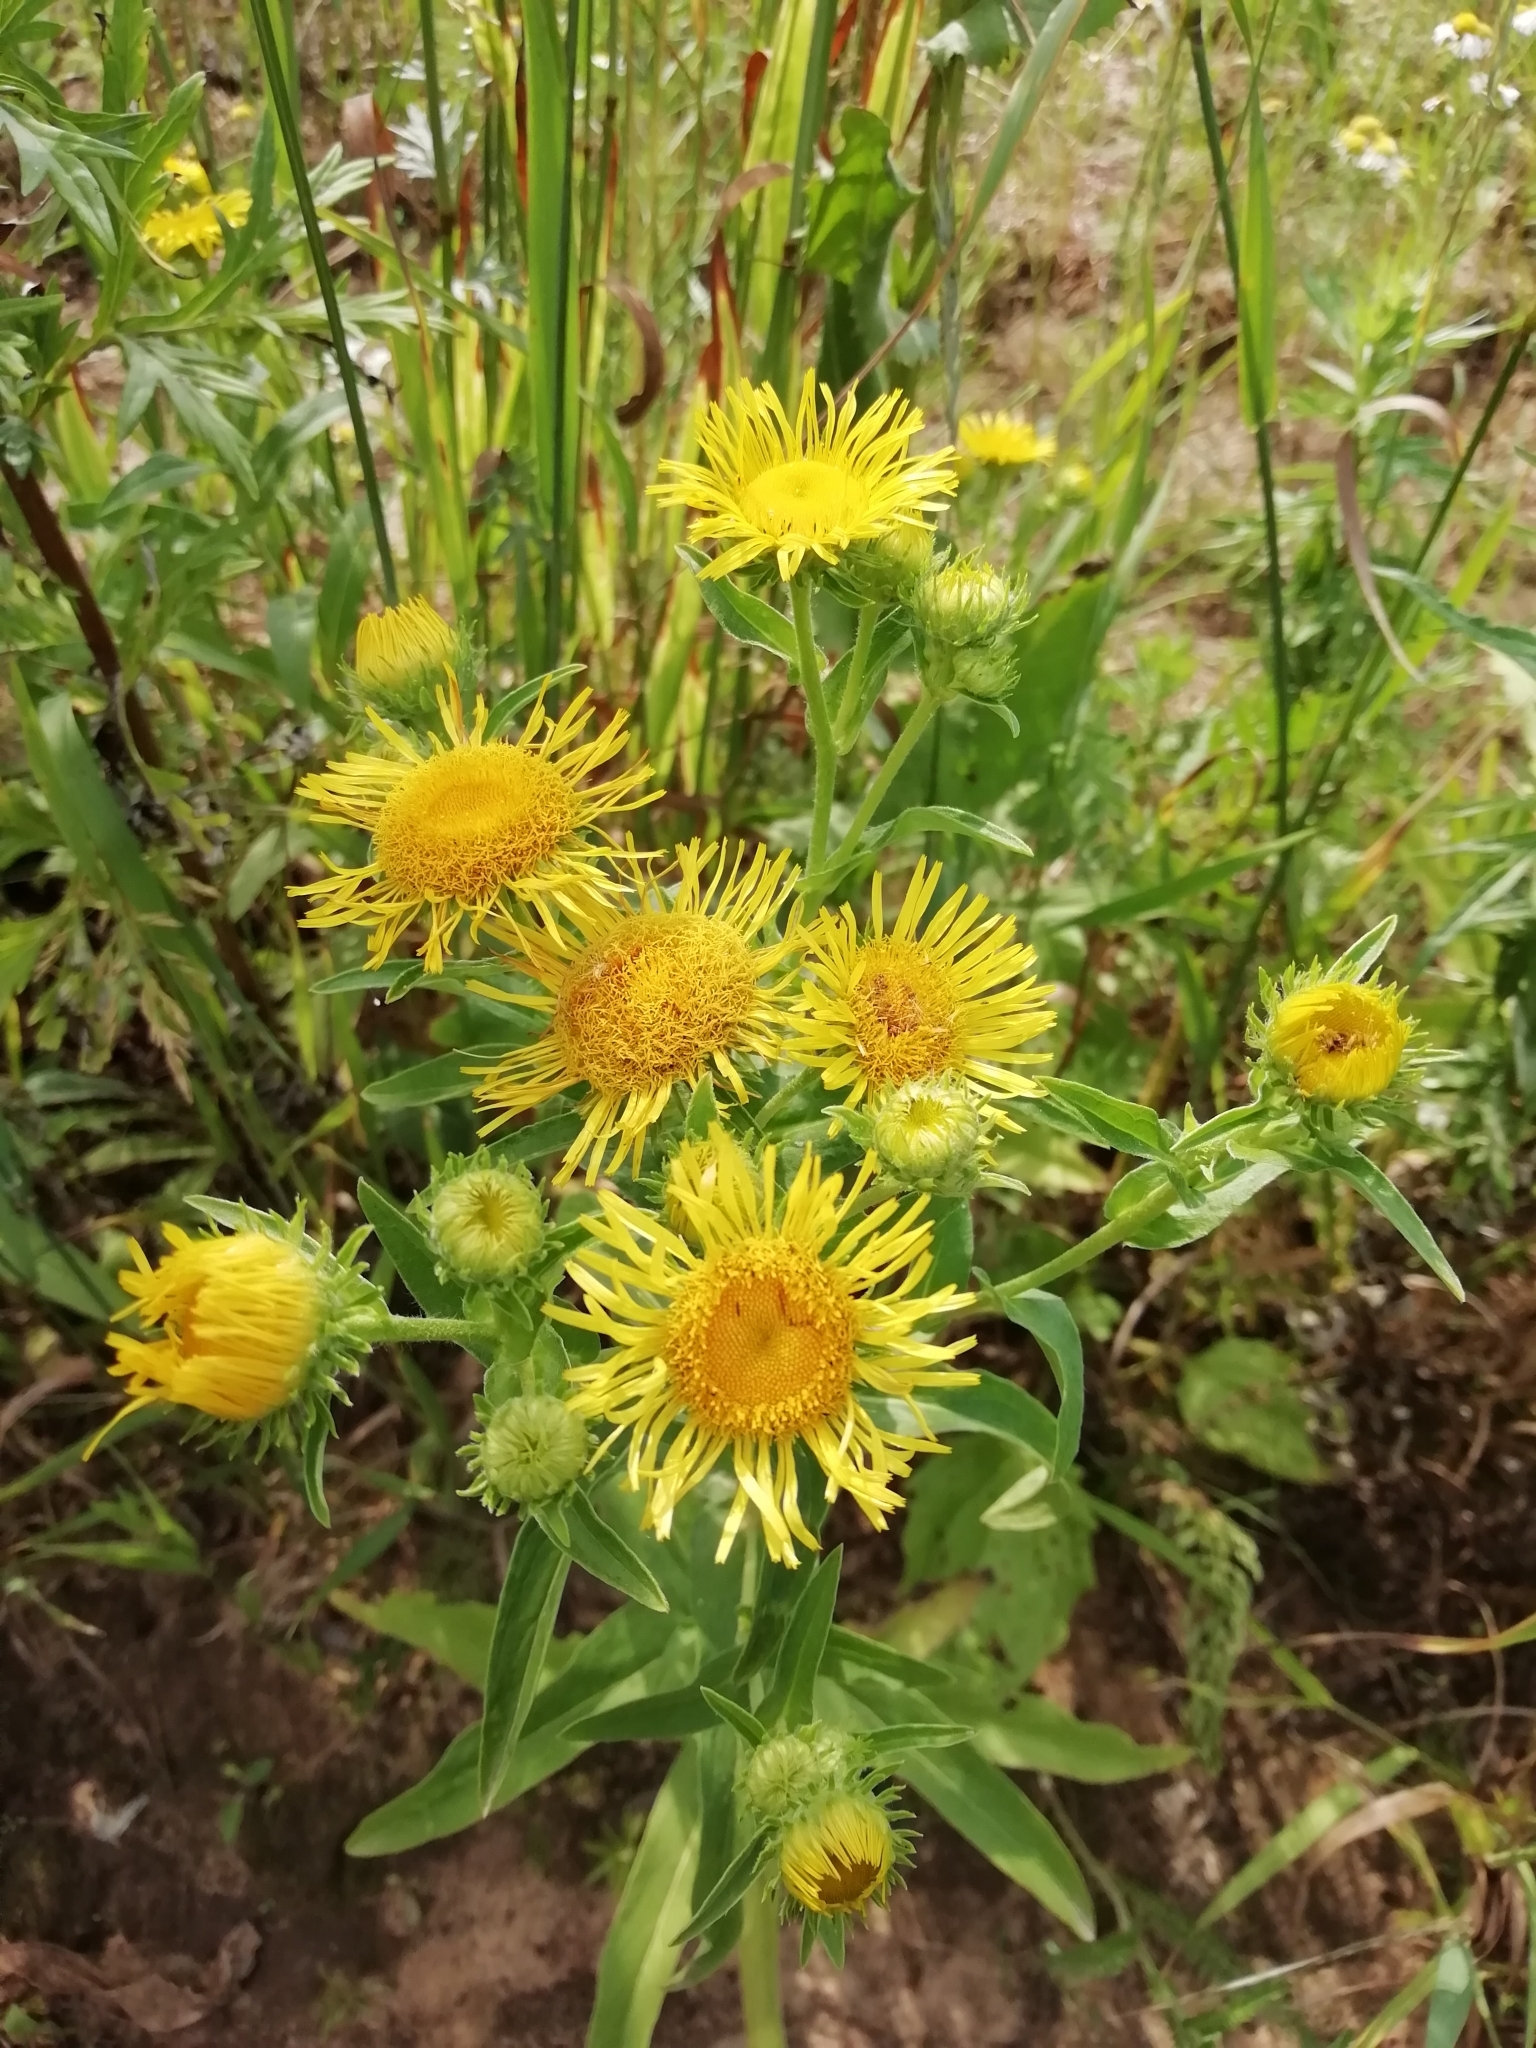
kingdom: Plantae
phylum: Tracheophyta
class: Magnoliopsida
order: Asterales
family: Asteraceae
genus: Pentanema
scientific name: Pentanema britannicum
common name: British elecampane
